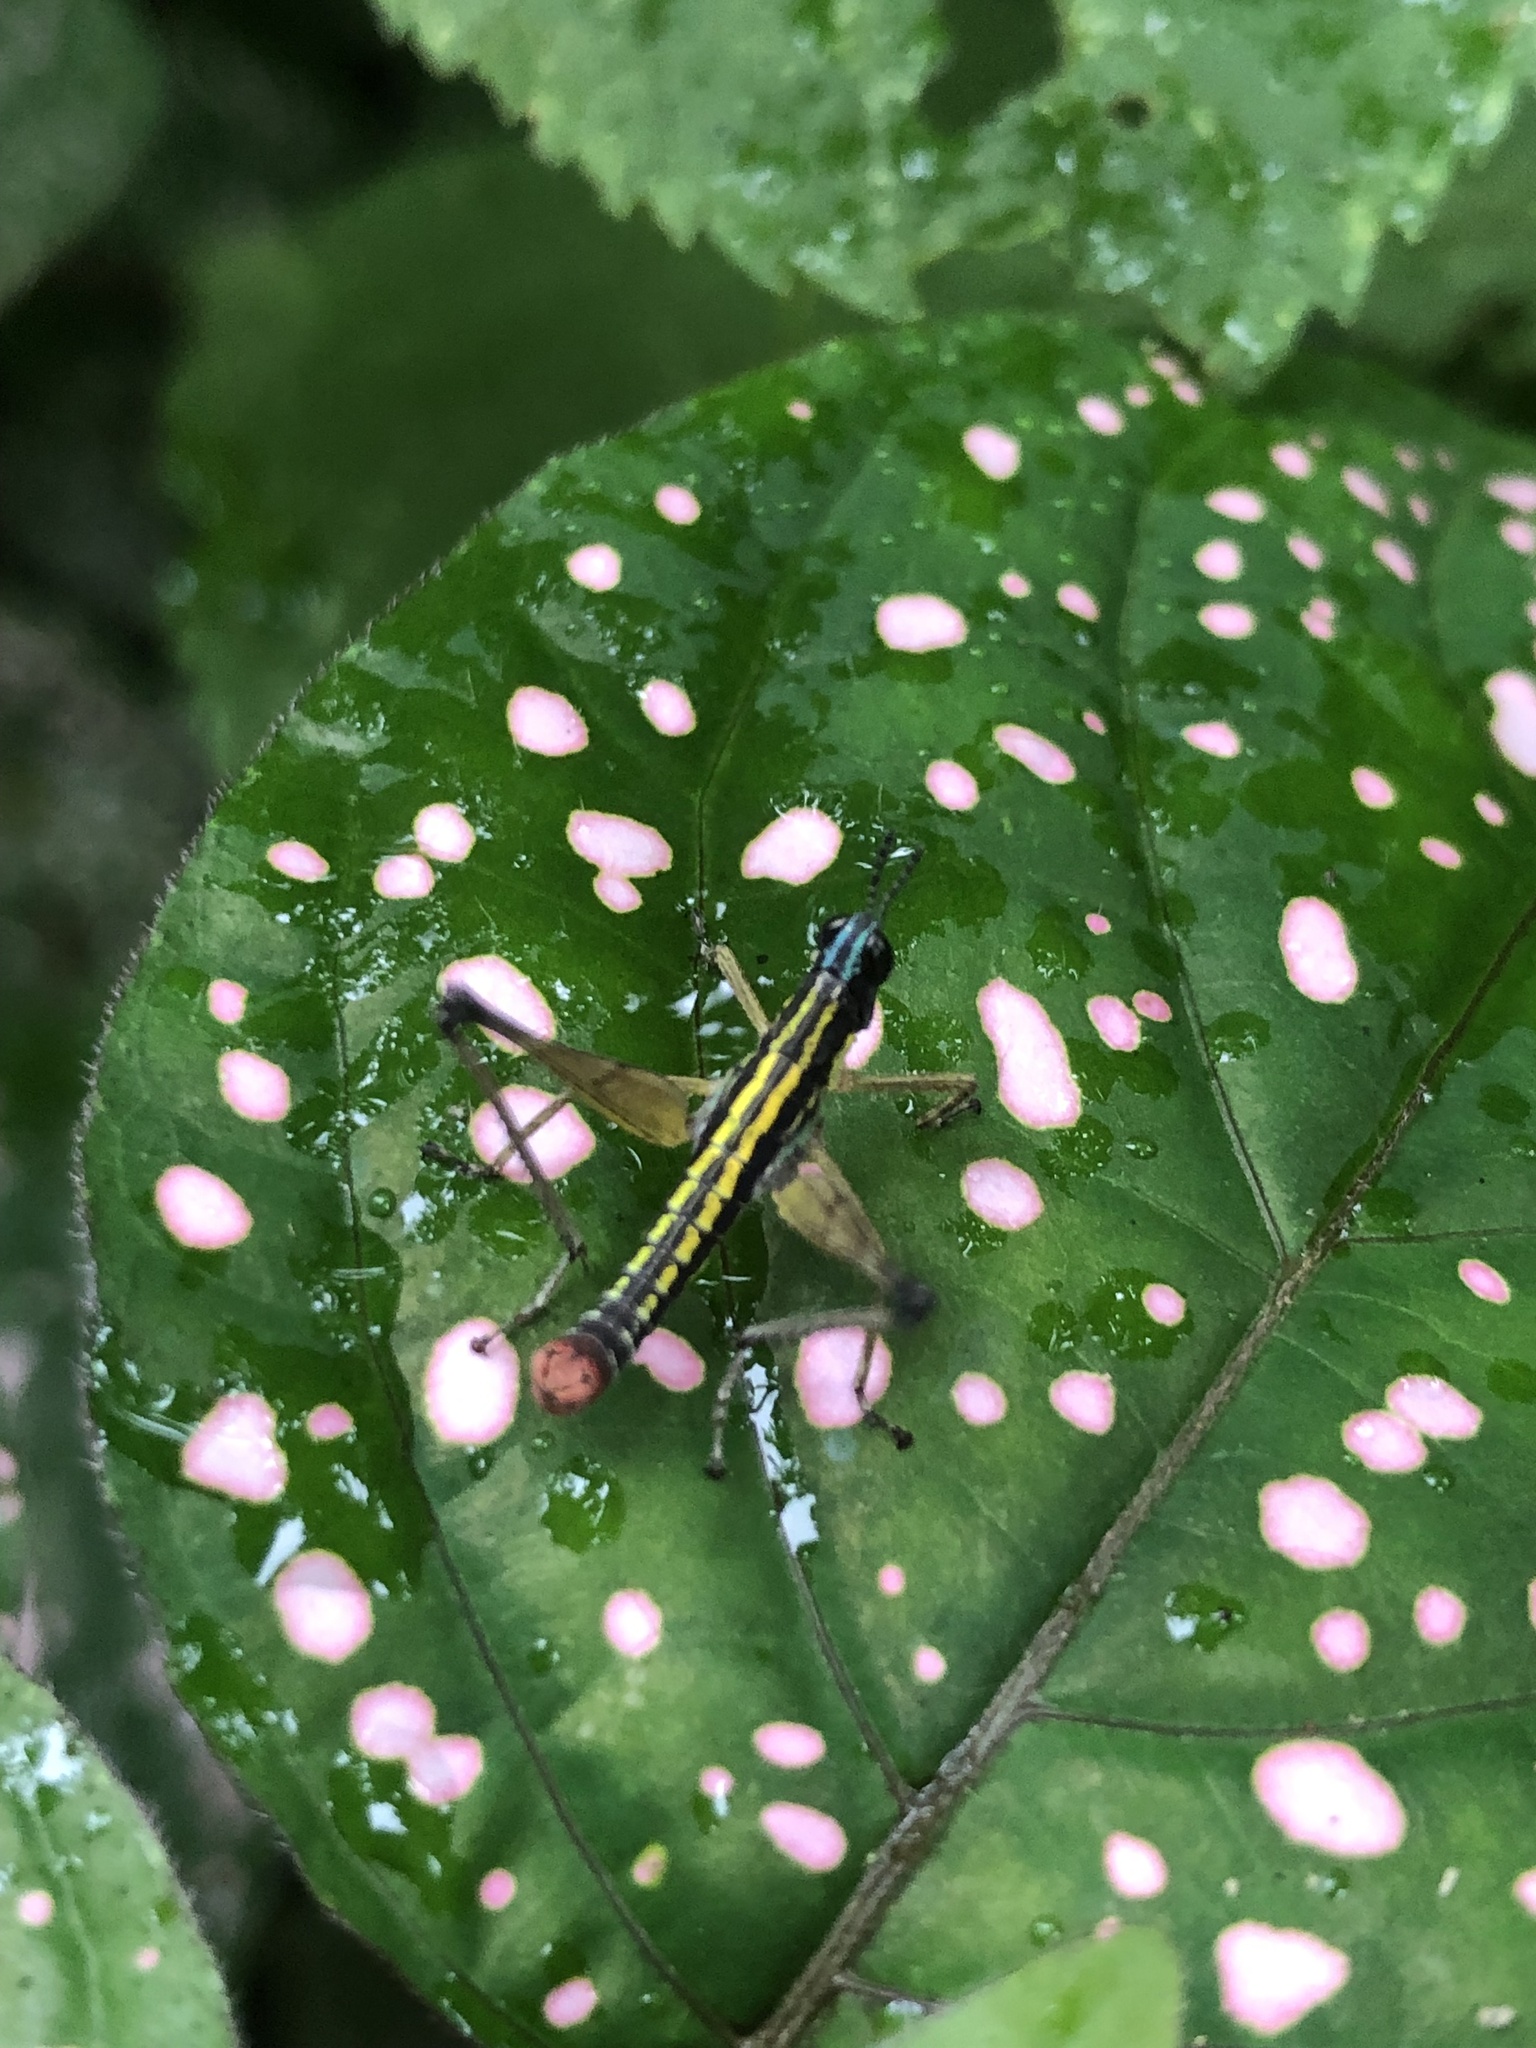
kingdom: Animalia
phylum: Arthropoda
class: Insecta
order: Orthoptera
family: Episactidae
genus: Episactus
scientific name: Episactus tristani
